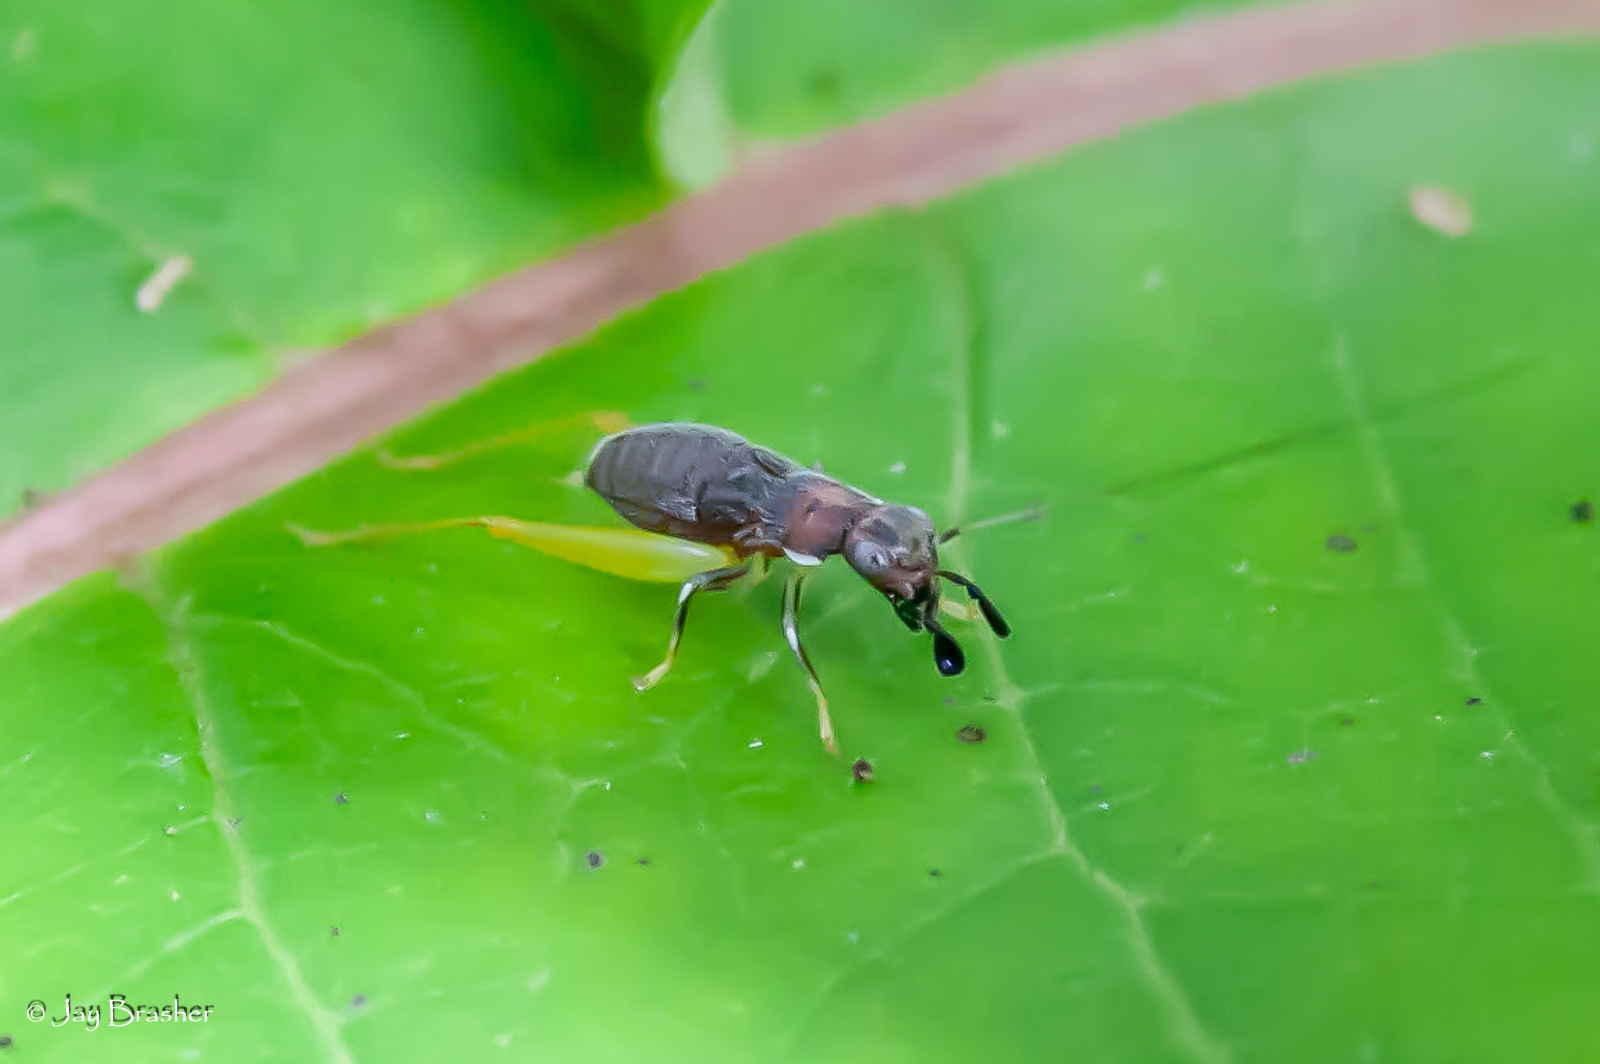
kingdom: Animalia
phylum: Arthropoda
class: Insecta
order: Orthoptera
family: Trigonidiidae
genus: Phyllopalpus
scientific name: Phyllopalpus pulchellus
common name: Handsome trig
